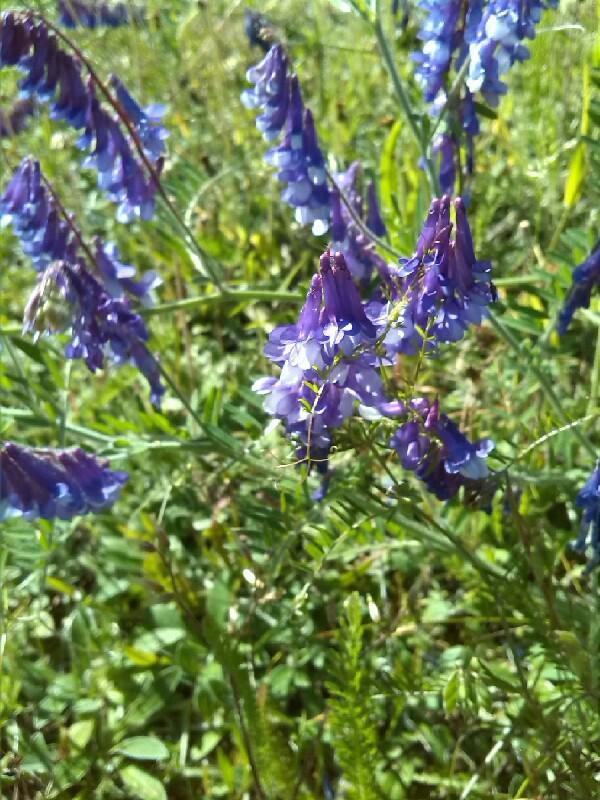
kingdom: Plantae
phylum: Tracheophyta
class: Magnoliopsida
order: Fabales
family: Fabaceae
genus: Vicia
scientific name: Vicia villosa
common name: Fodder vetch
